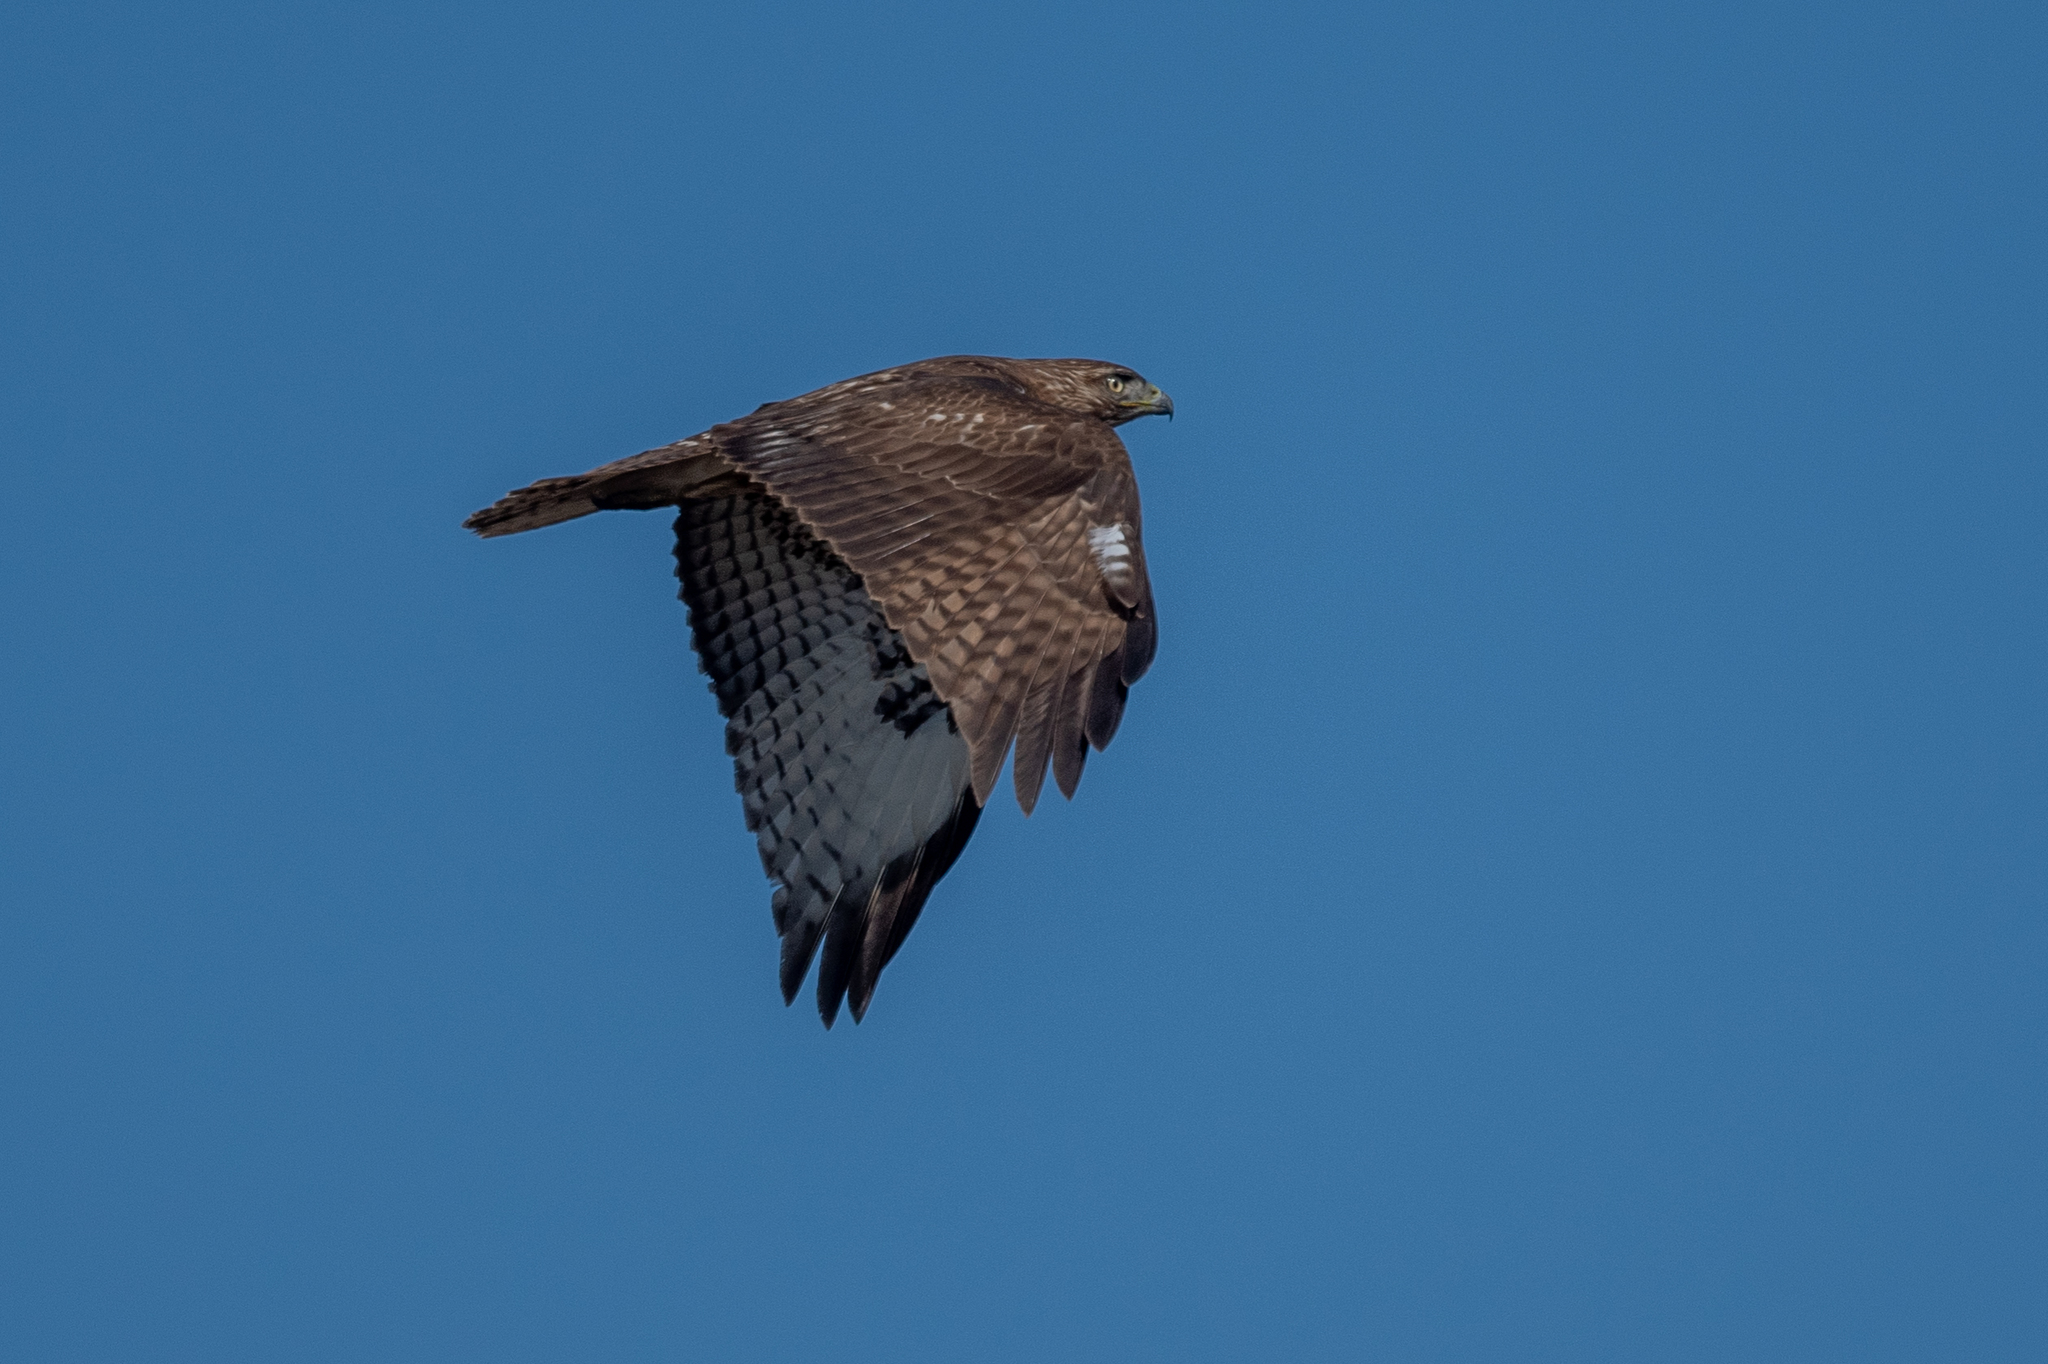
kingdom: Animalia
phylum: Chordata
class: Aves
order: Accipitriformes
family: Accipitridae
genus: Buteo
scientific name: Buteo jamaicensis
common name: Red-tailed hawk
